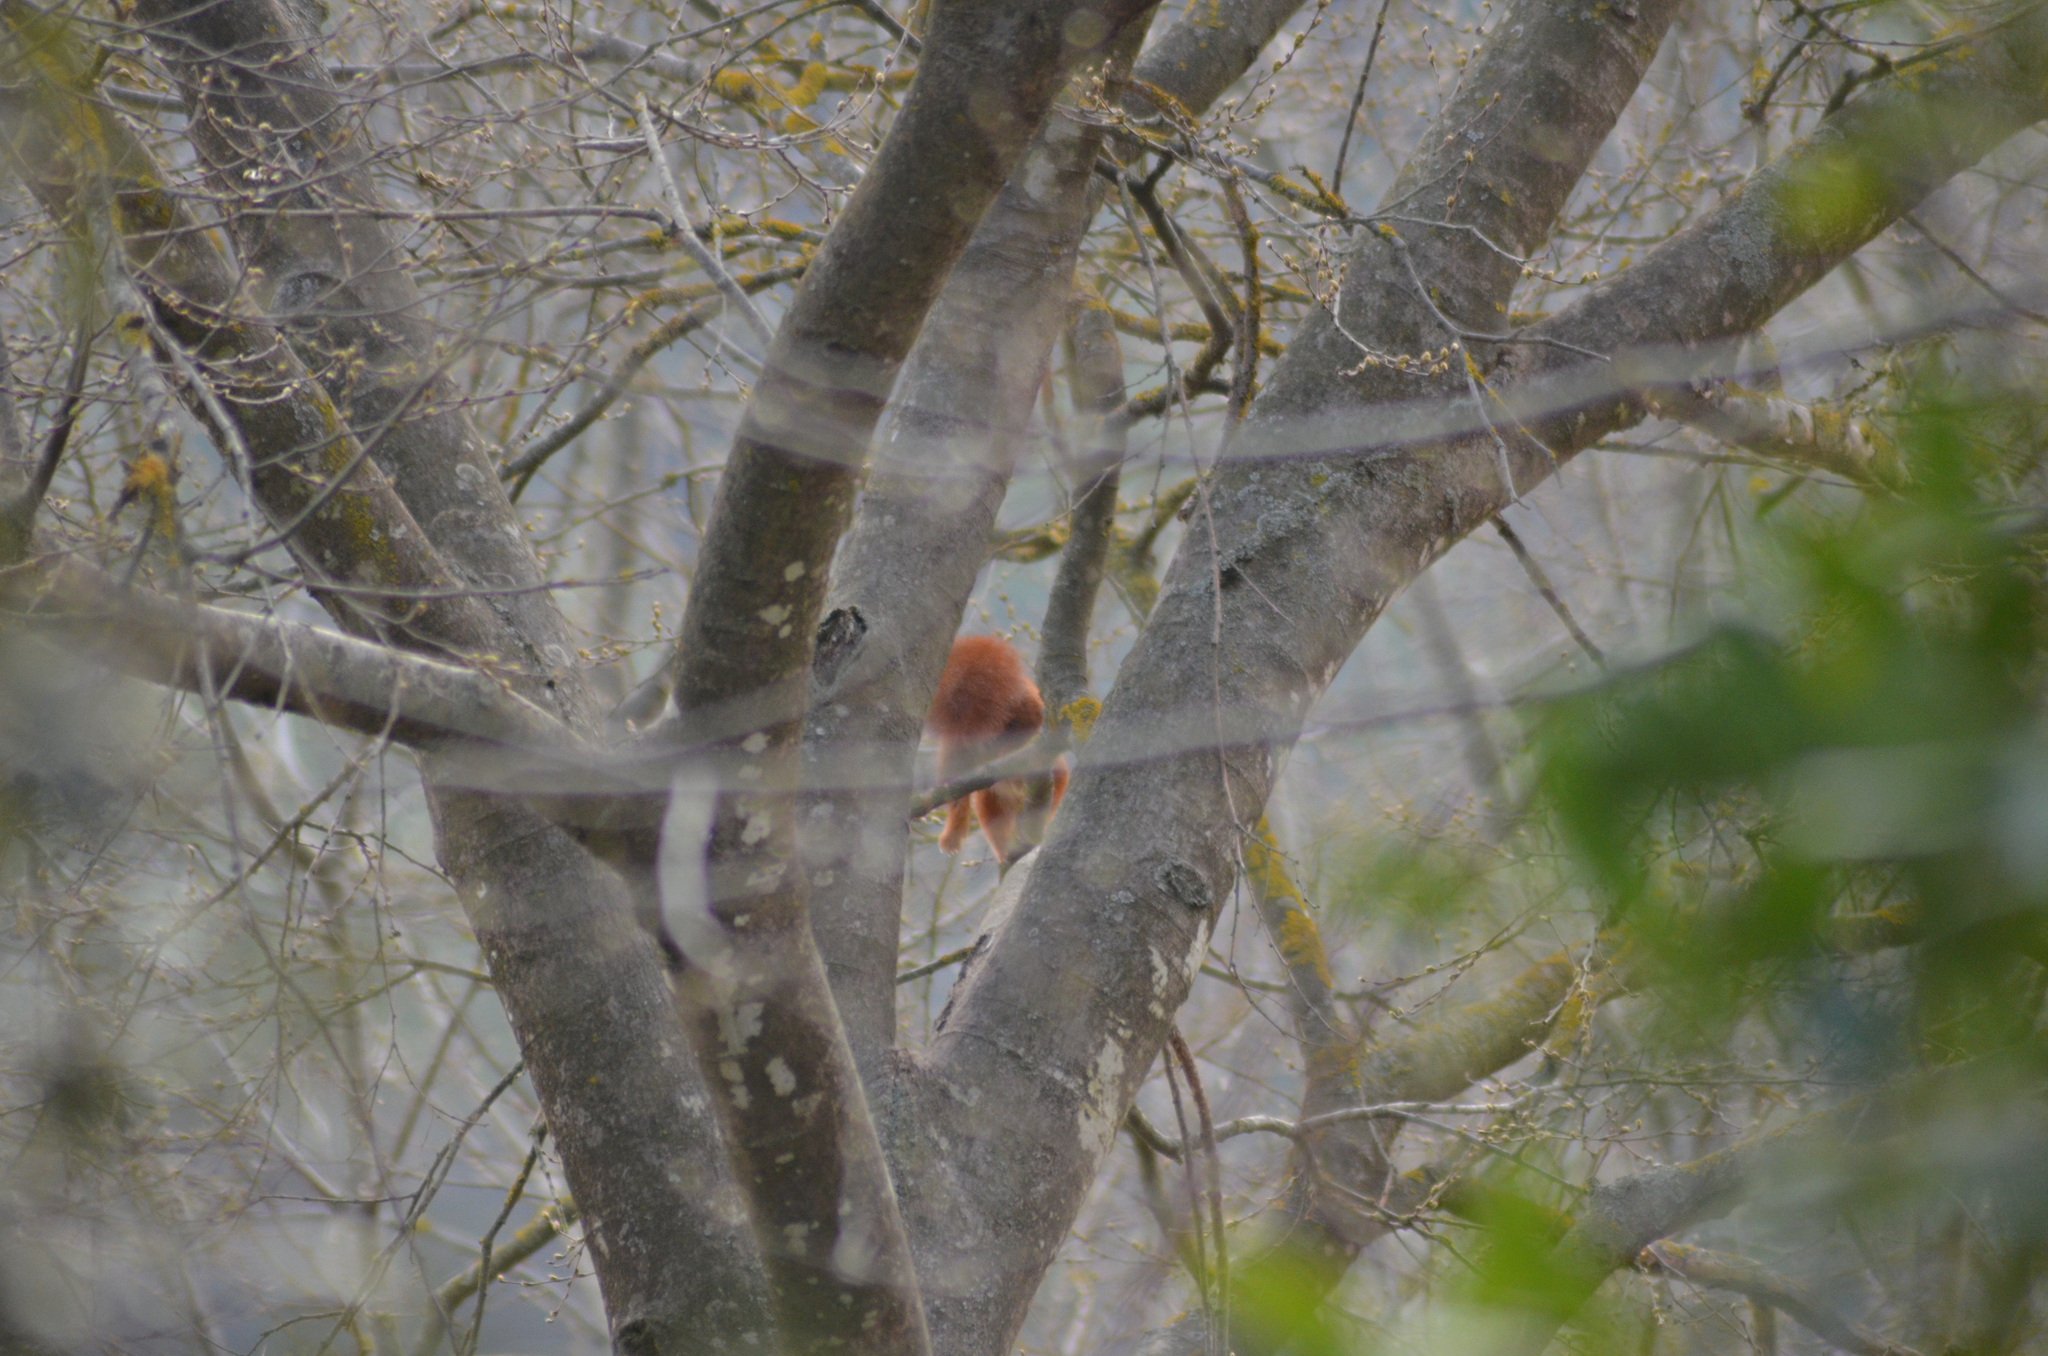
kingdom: Animalia
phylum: Chordata
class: Mammalia
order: Rodentia
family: Sciuridae
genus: Sciurus
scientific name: Sciurus vulgaris
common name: Eurasian red squirrel
